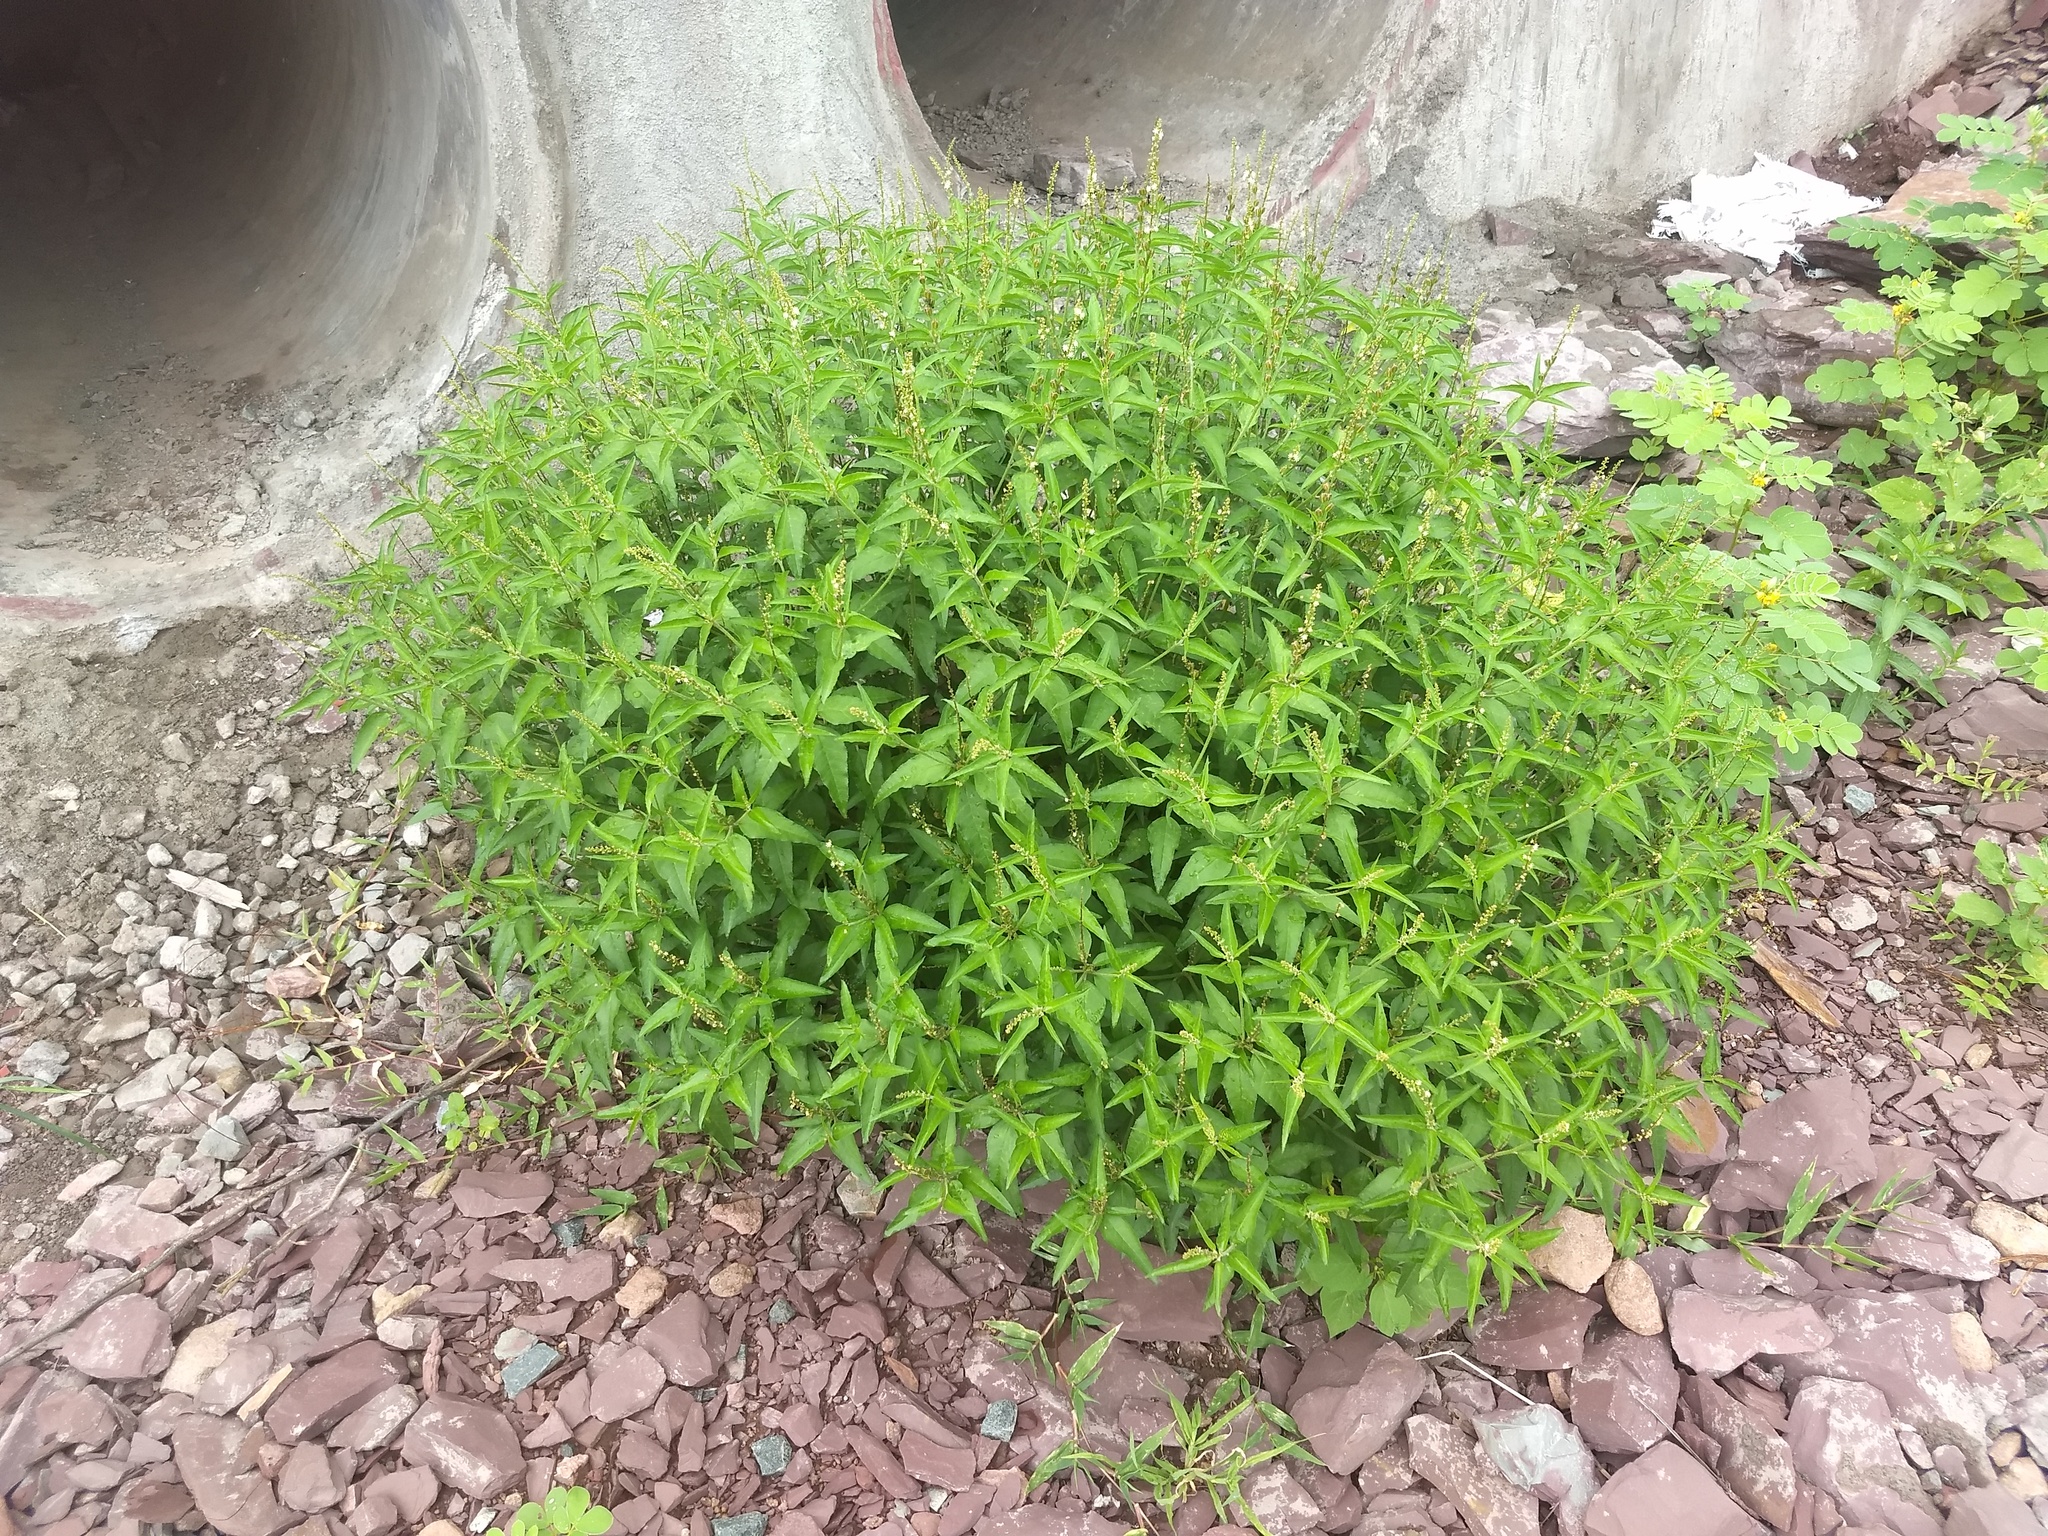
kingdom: Plantae
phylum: Tracheophyta
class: Magnoliopsida
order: Malpighiales
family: Euphorbiaceae
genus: Croton
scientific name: Croton bonplandianus
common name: Bonpland's croton
